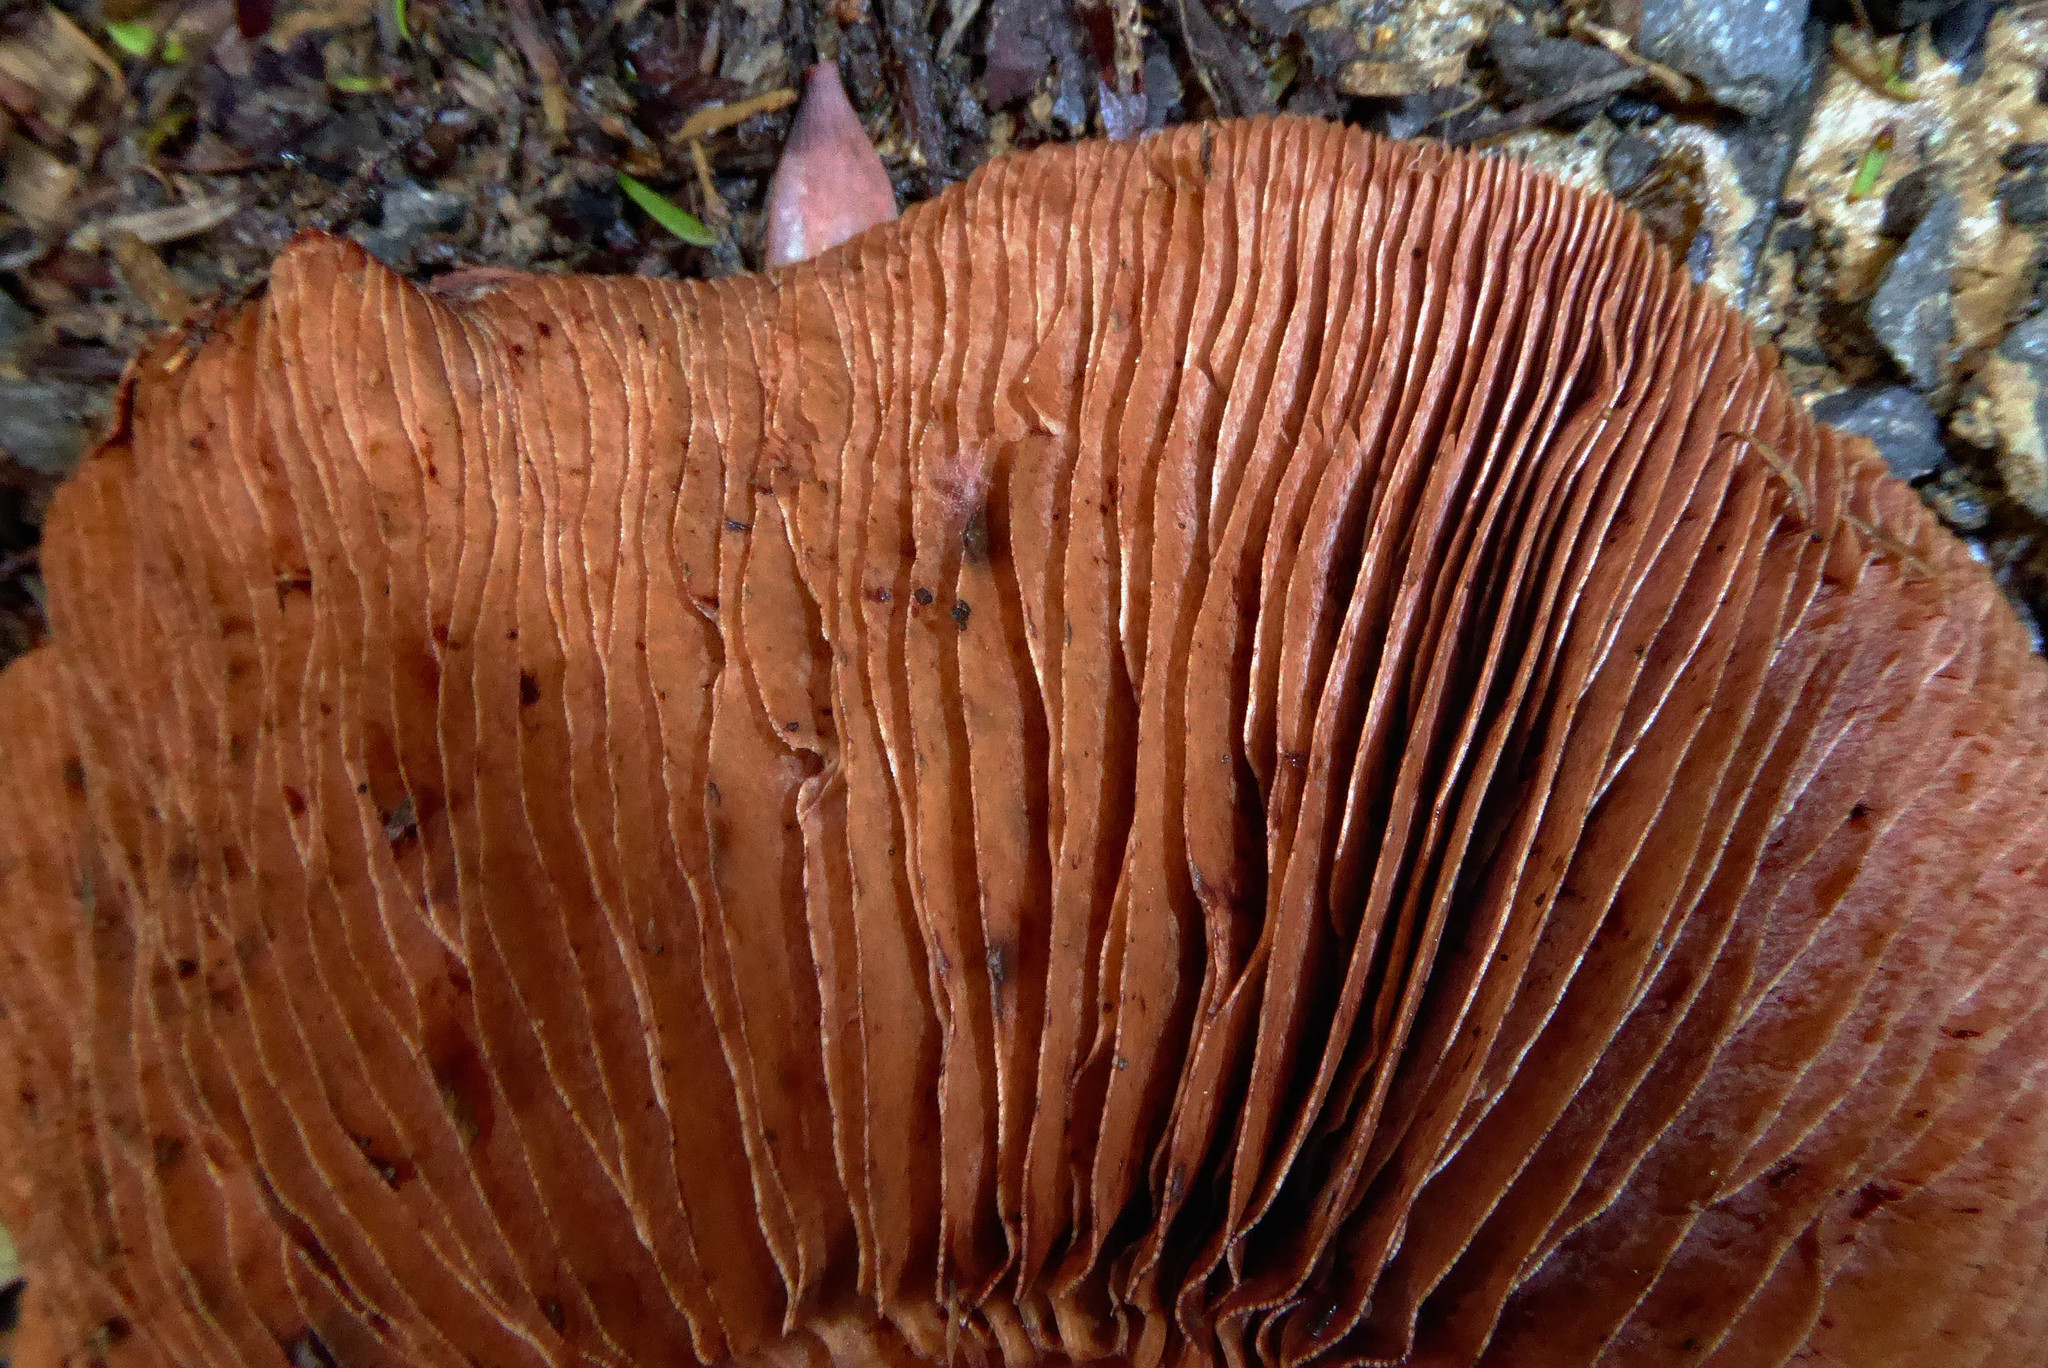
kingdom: Fungi
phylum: Basidiomycota
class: Agaricomycetes
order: Agaricales
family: Hymenogastraceae
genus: Hebeloma
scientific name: Hebeloma victoriense
